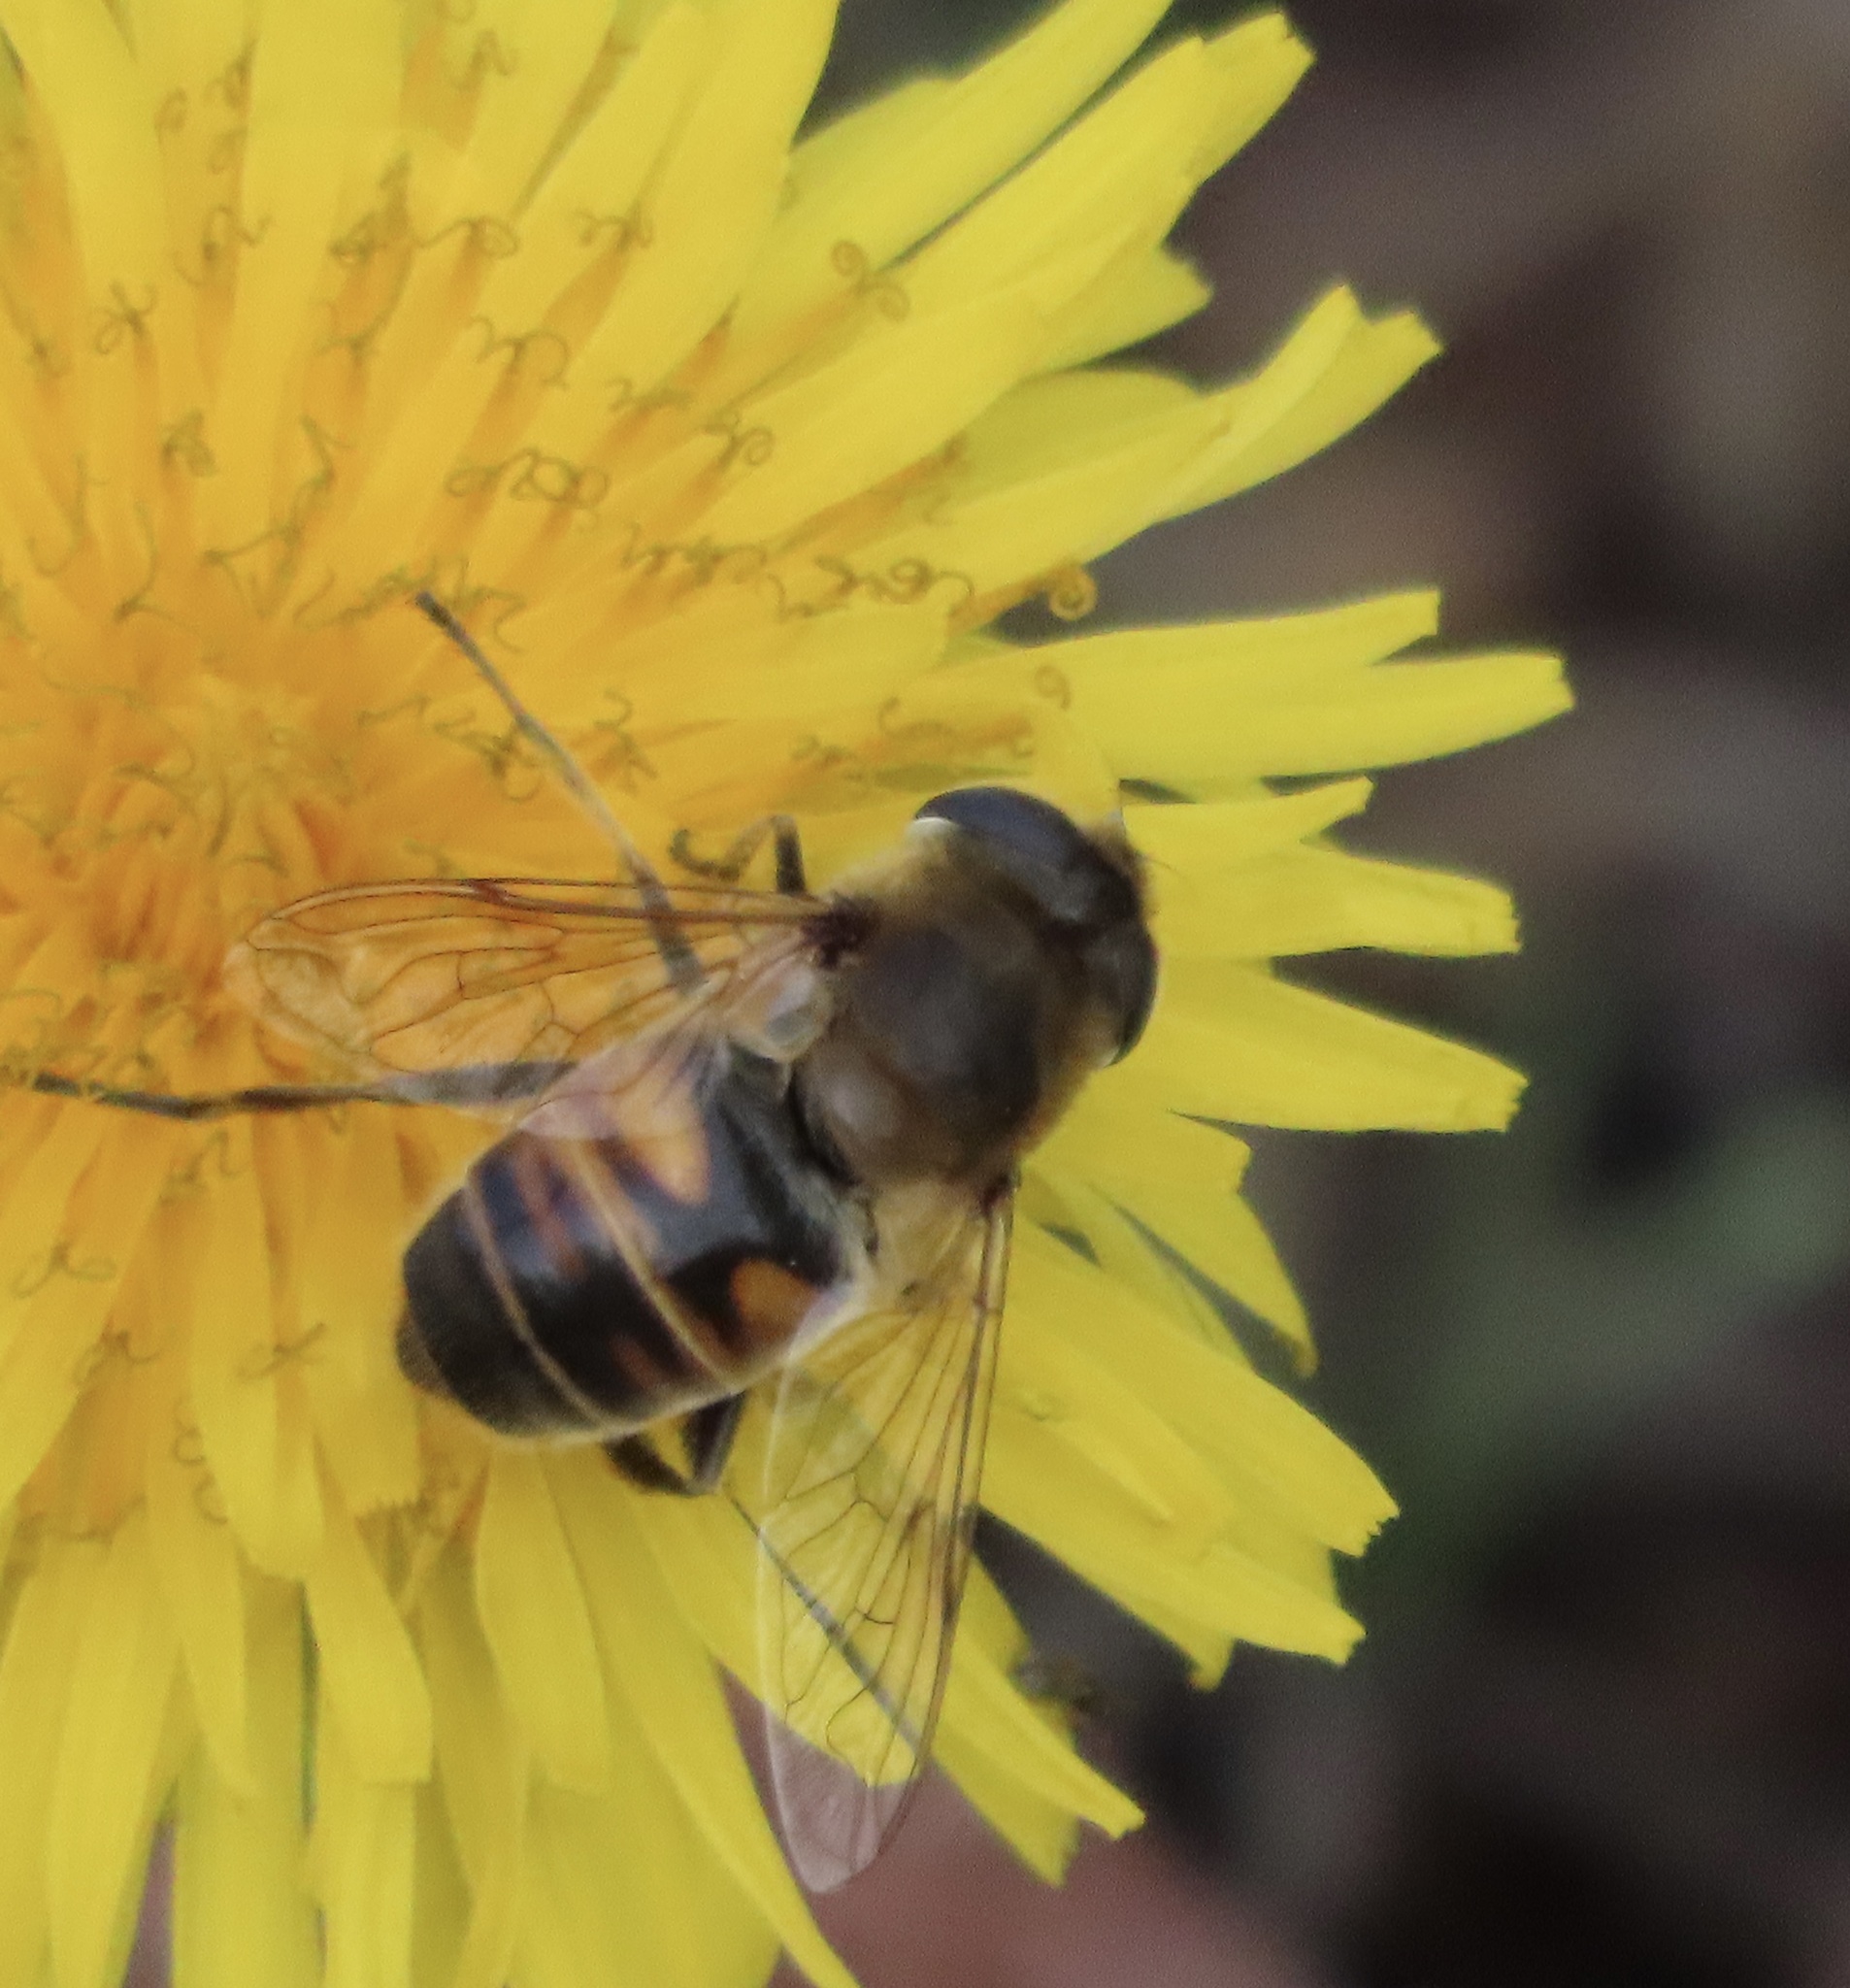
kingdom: Animalia
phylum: Arthropoda
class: Insecta
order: Diptera
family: Syrphidae
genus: Eristalis
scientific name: Eristalis tenax
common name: Drone fly
